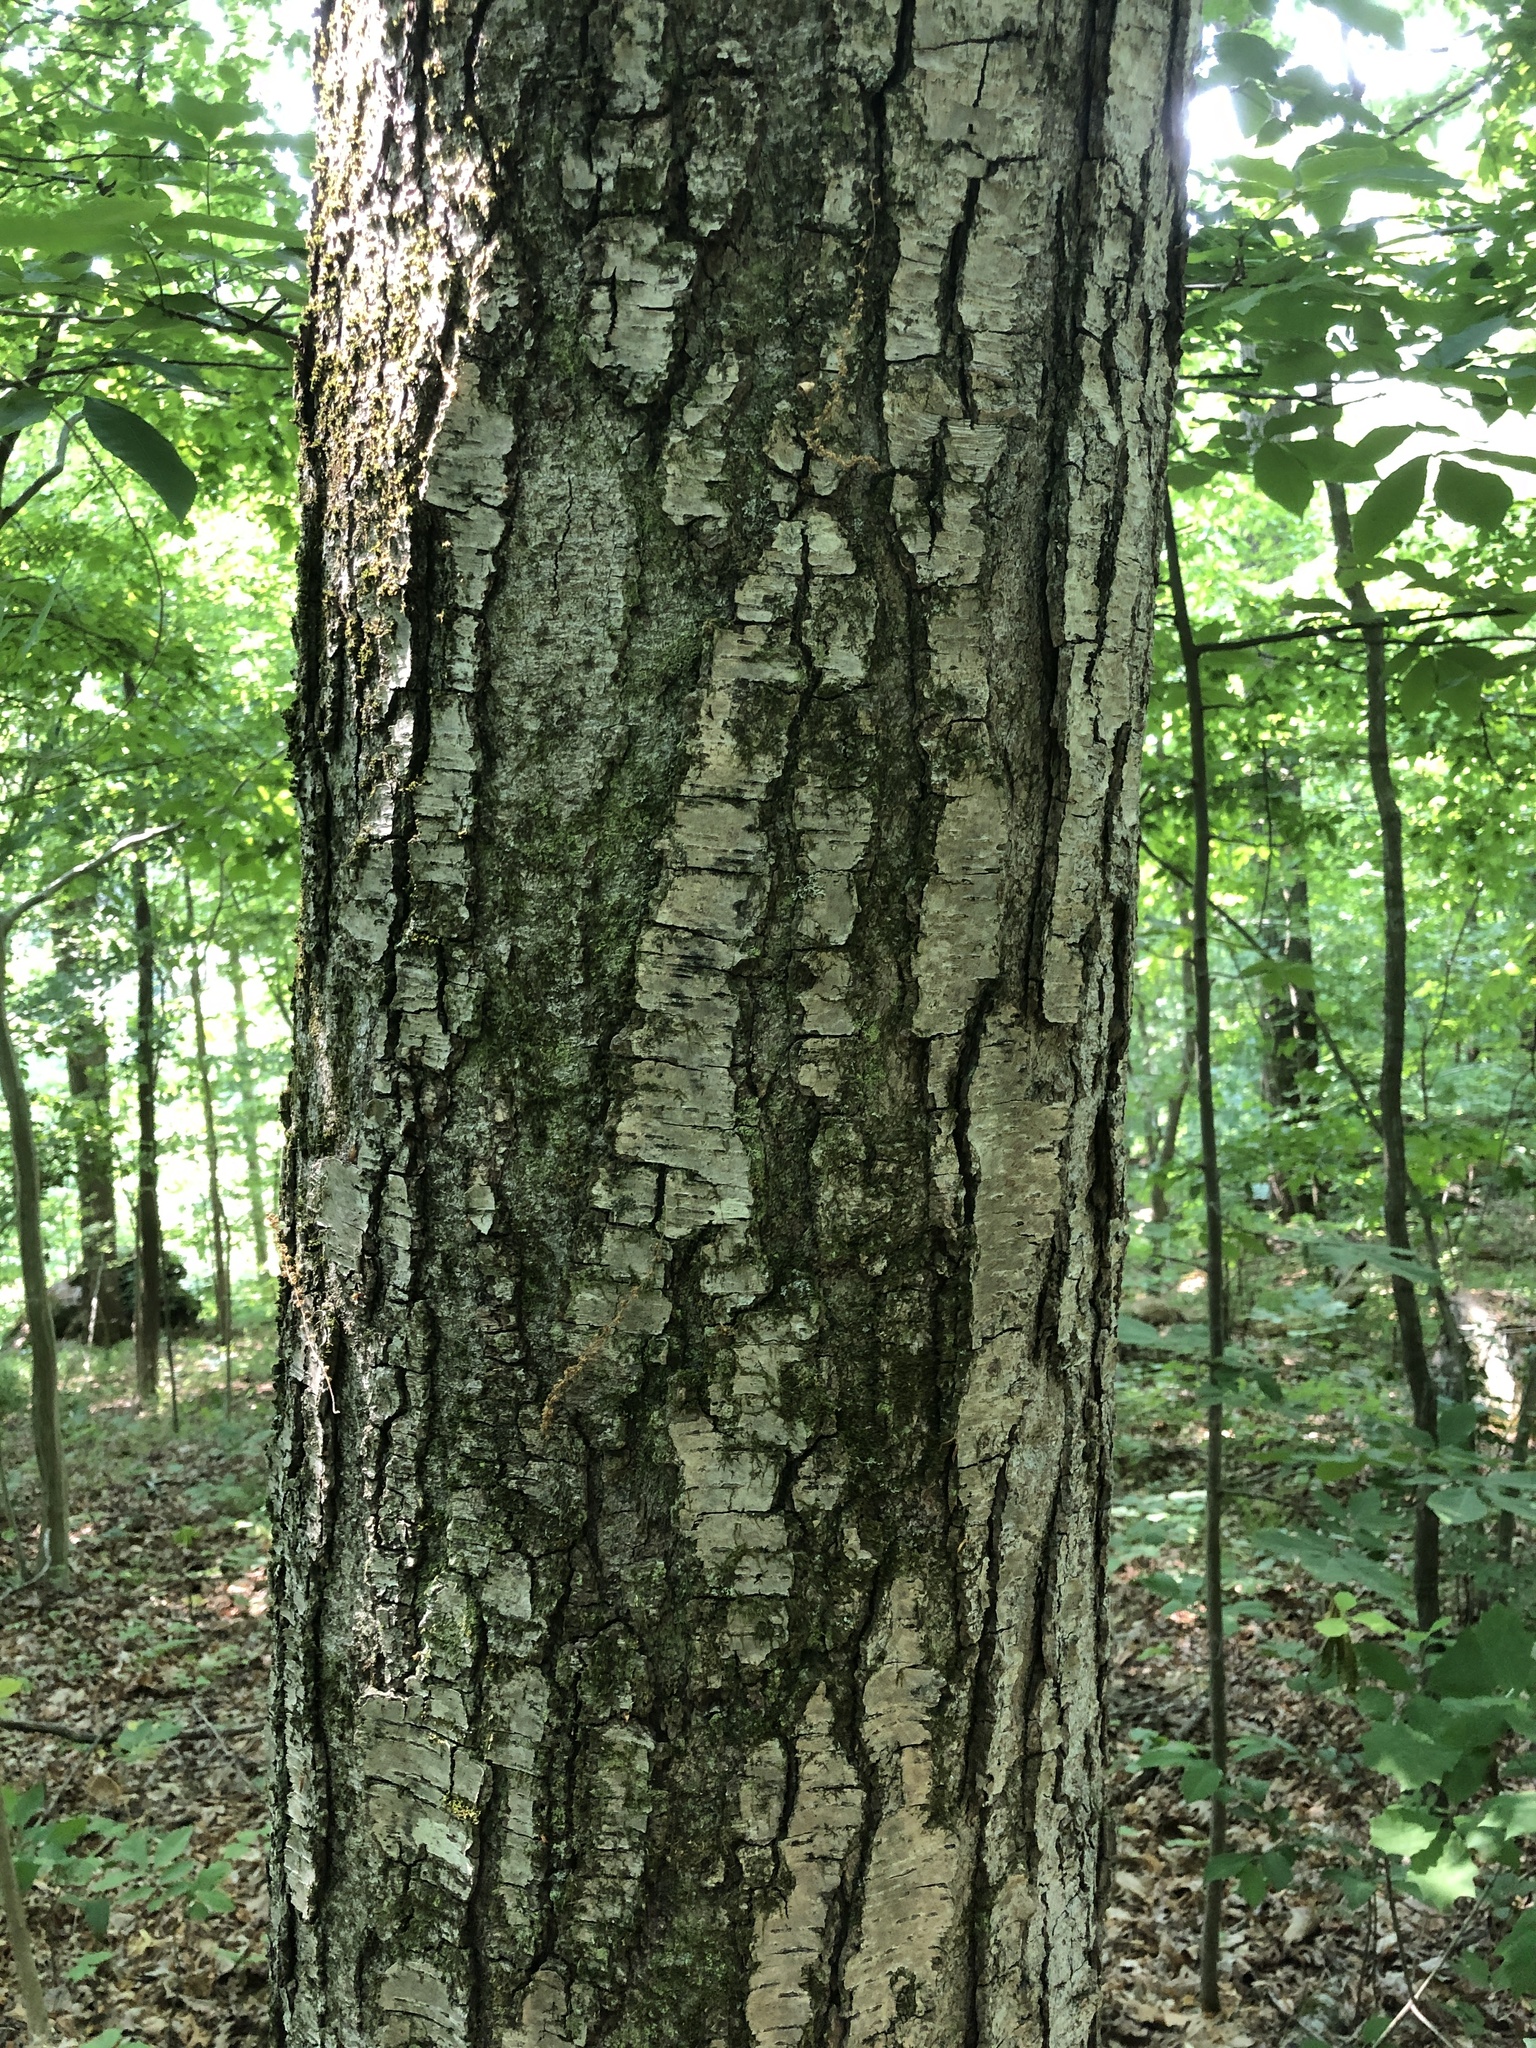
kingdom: Plantae
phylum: Tracheophyta
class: Magnoliopsida
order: Fagales
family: Betulaceae
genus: Betula
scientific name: Betula lenta
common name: Black birch
